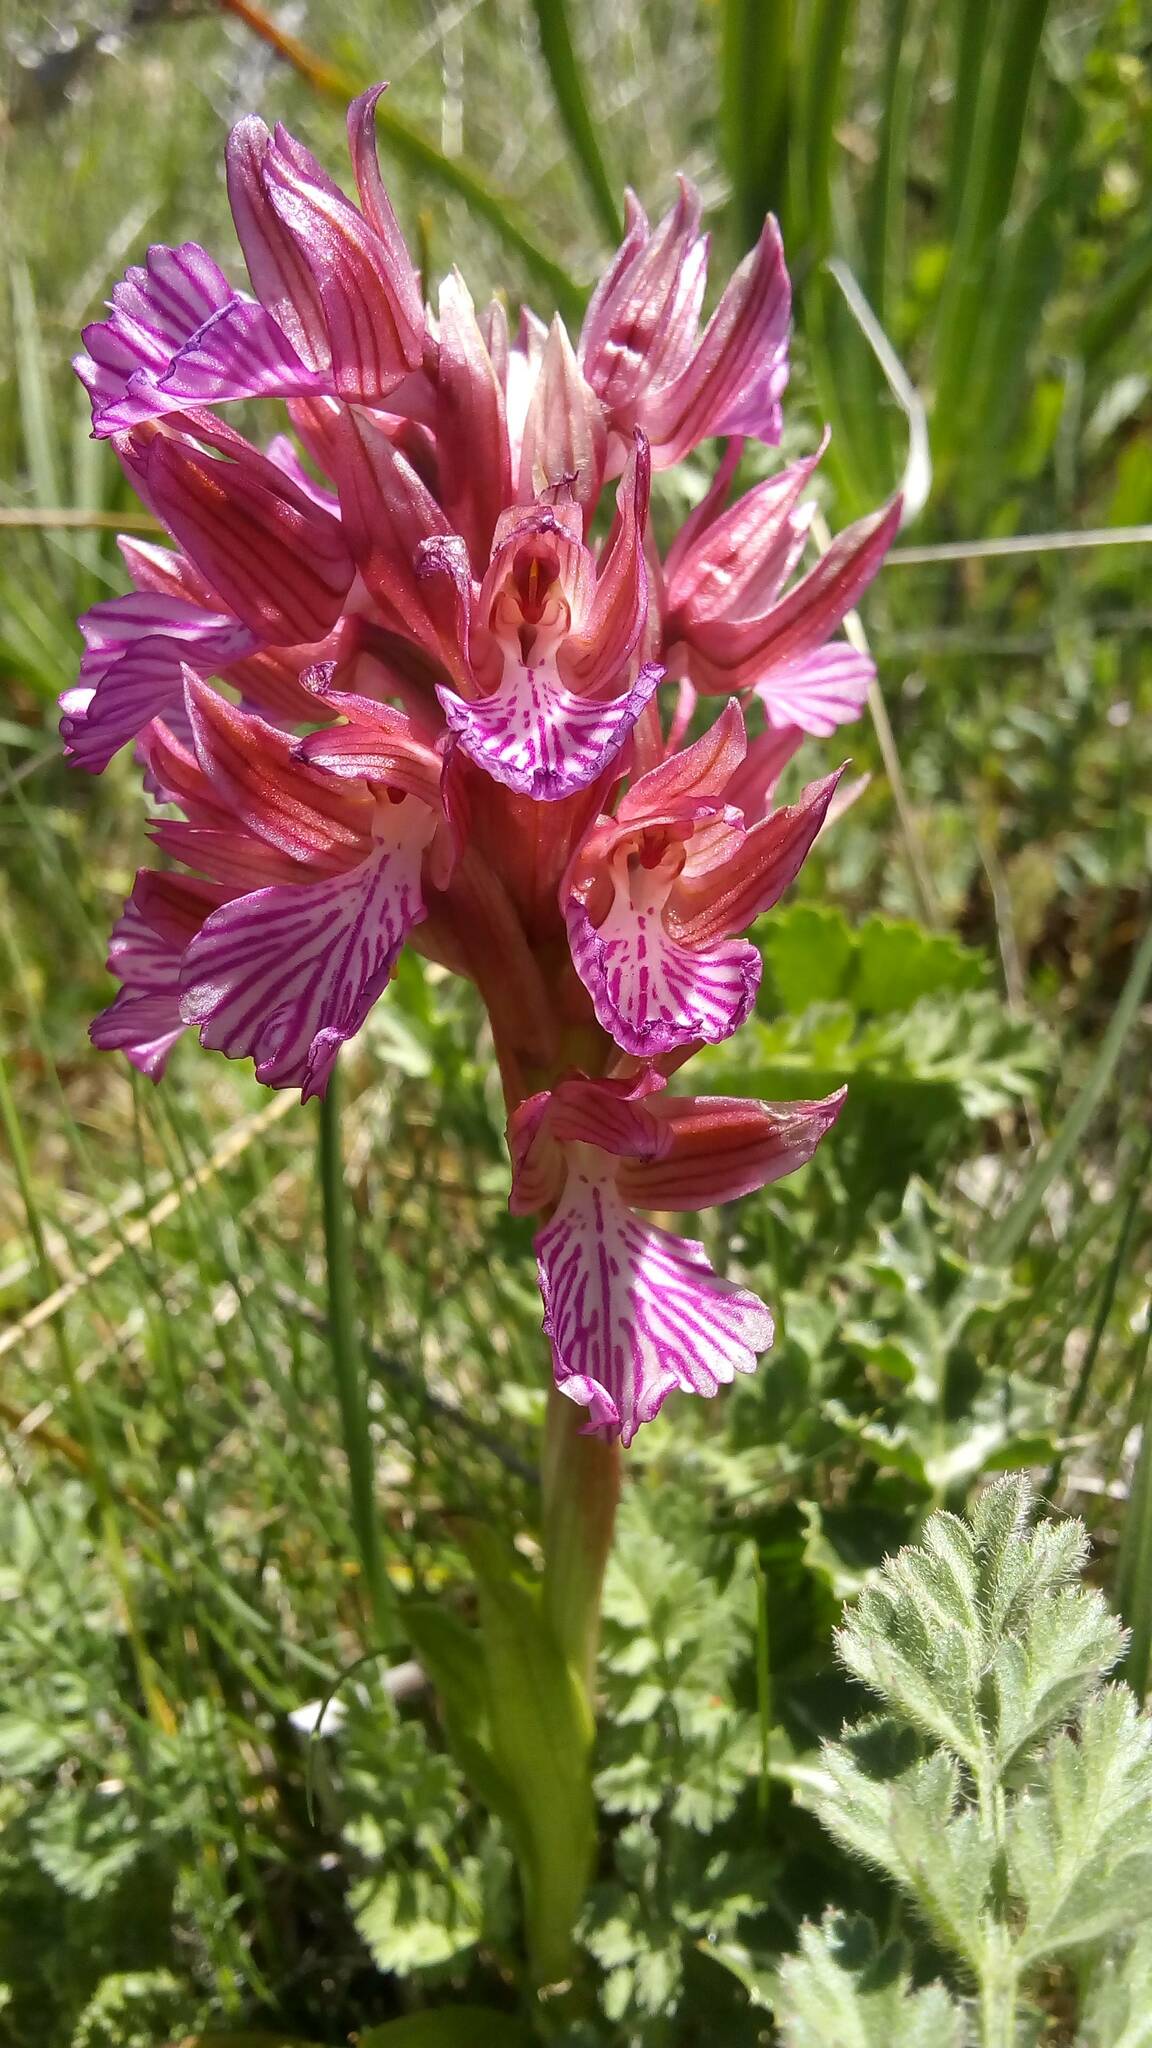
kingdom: Plantae
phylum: Tracheophyta
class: Liliopsida
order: Asparagales
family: Orchidaceae
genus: Anacamptis
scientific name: Anacamptis papilionacea
